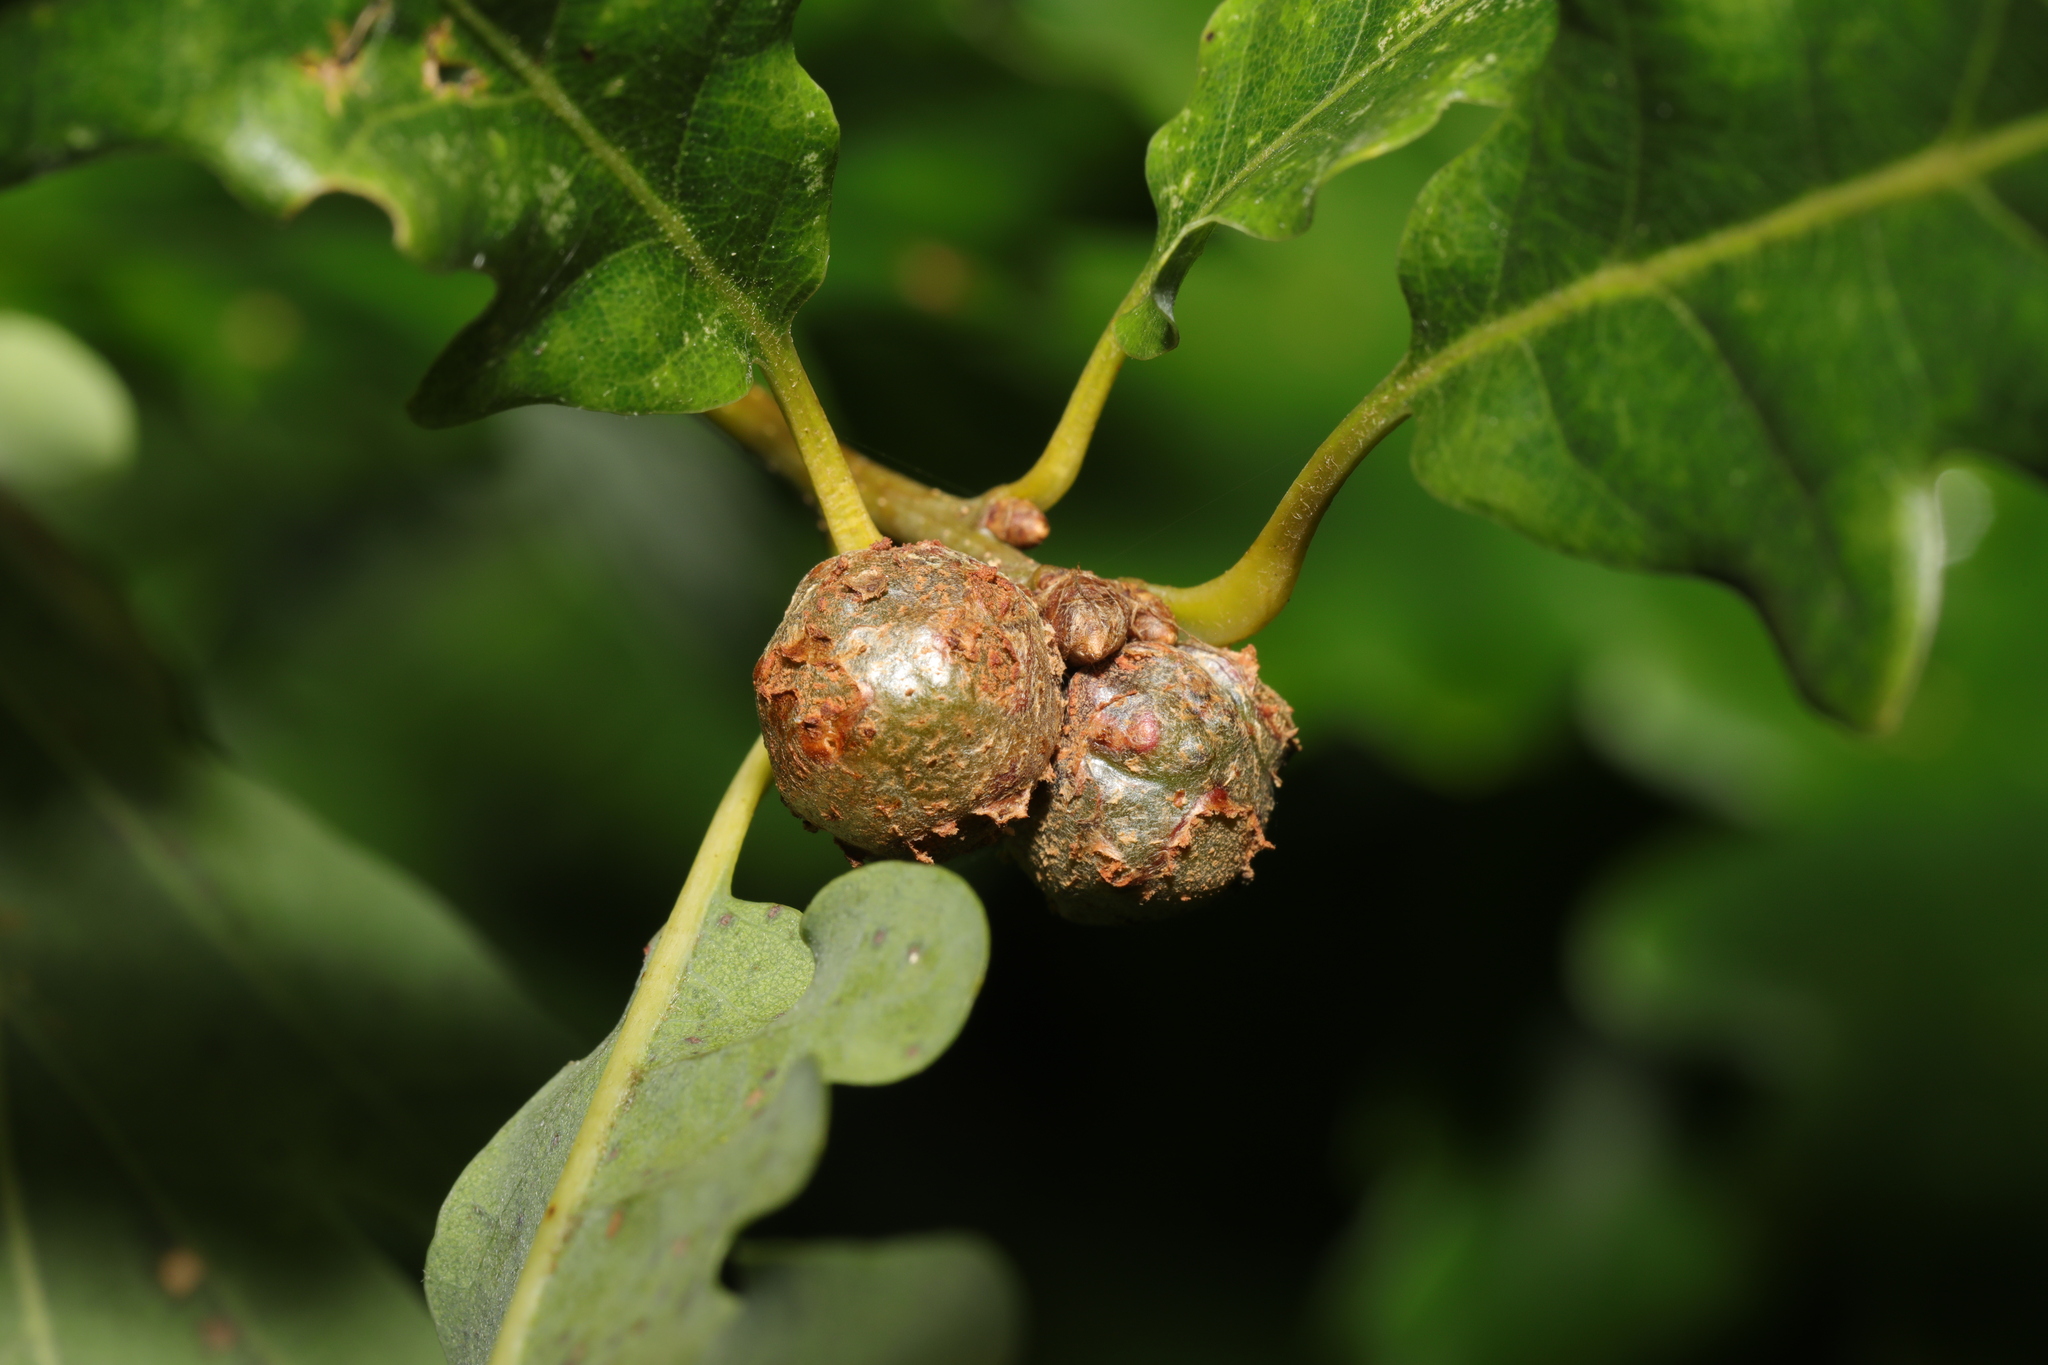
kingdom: Animalia
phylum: Arthropoda
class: Insecta
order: Hymenoptera
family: Cynipidae
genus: Andricus
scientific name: Andricus lignicolus
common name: Cola-nut gall
